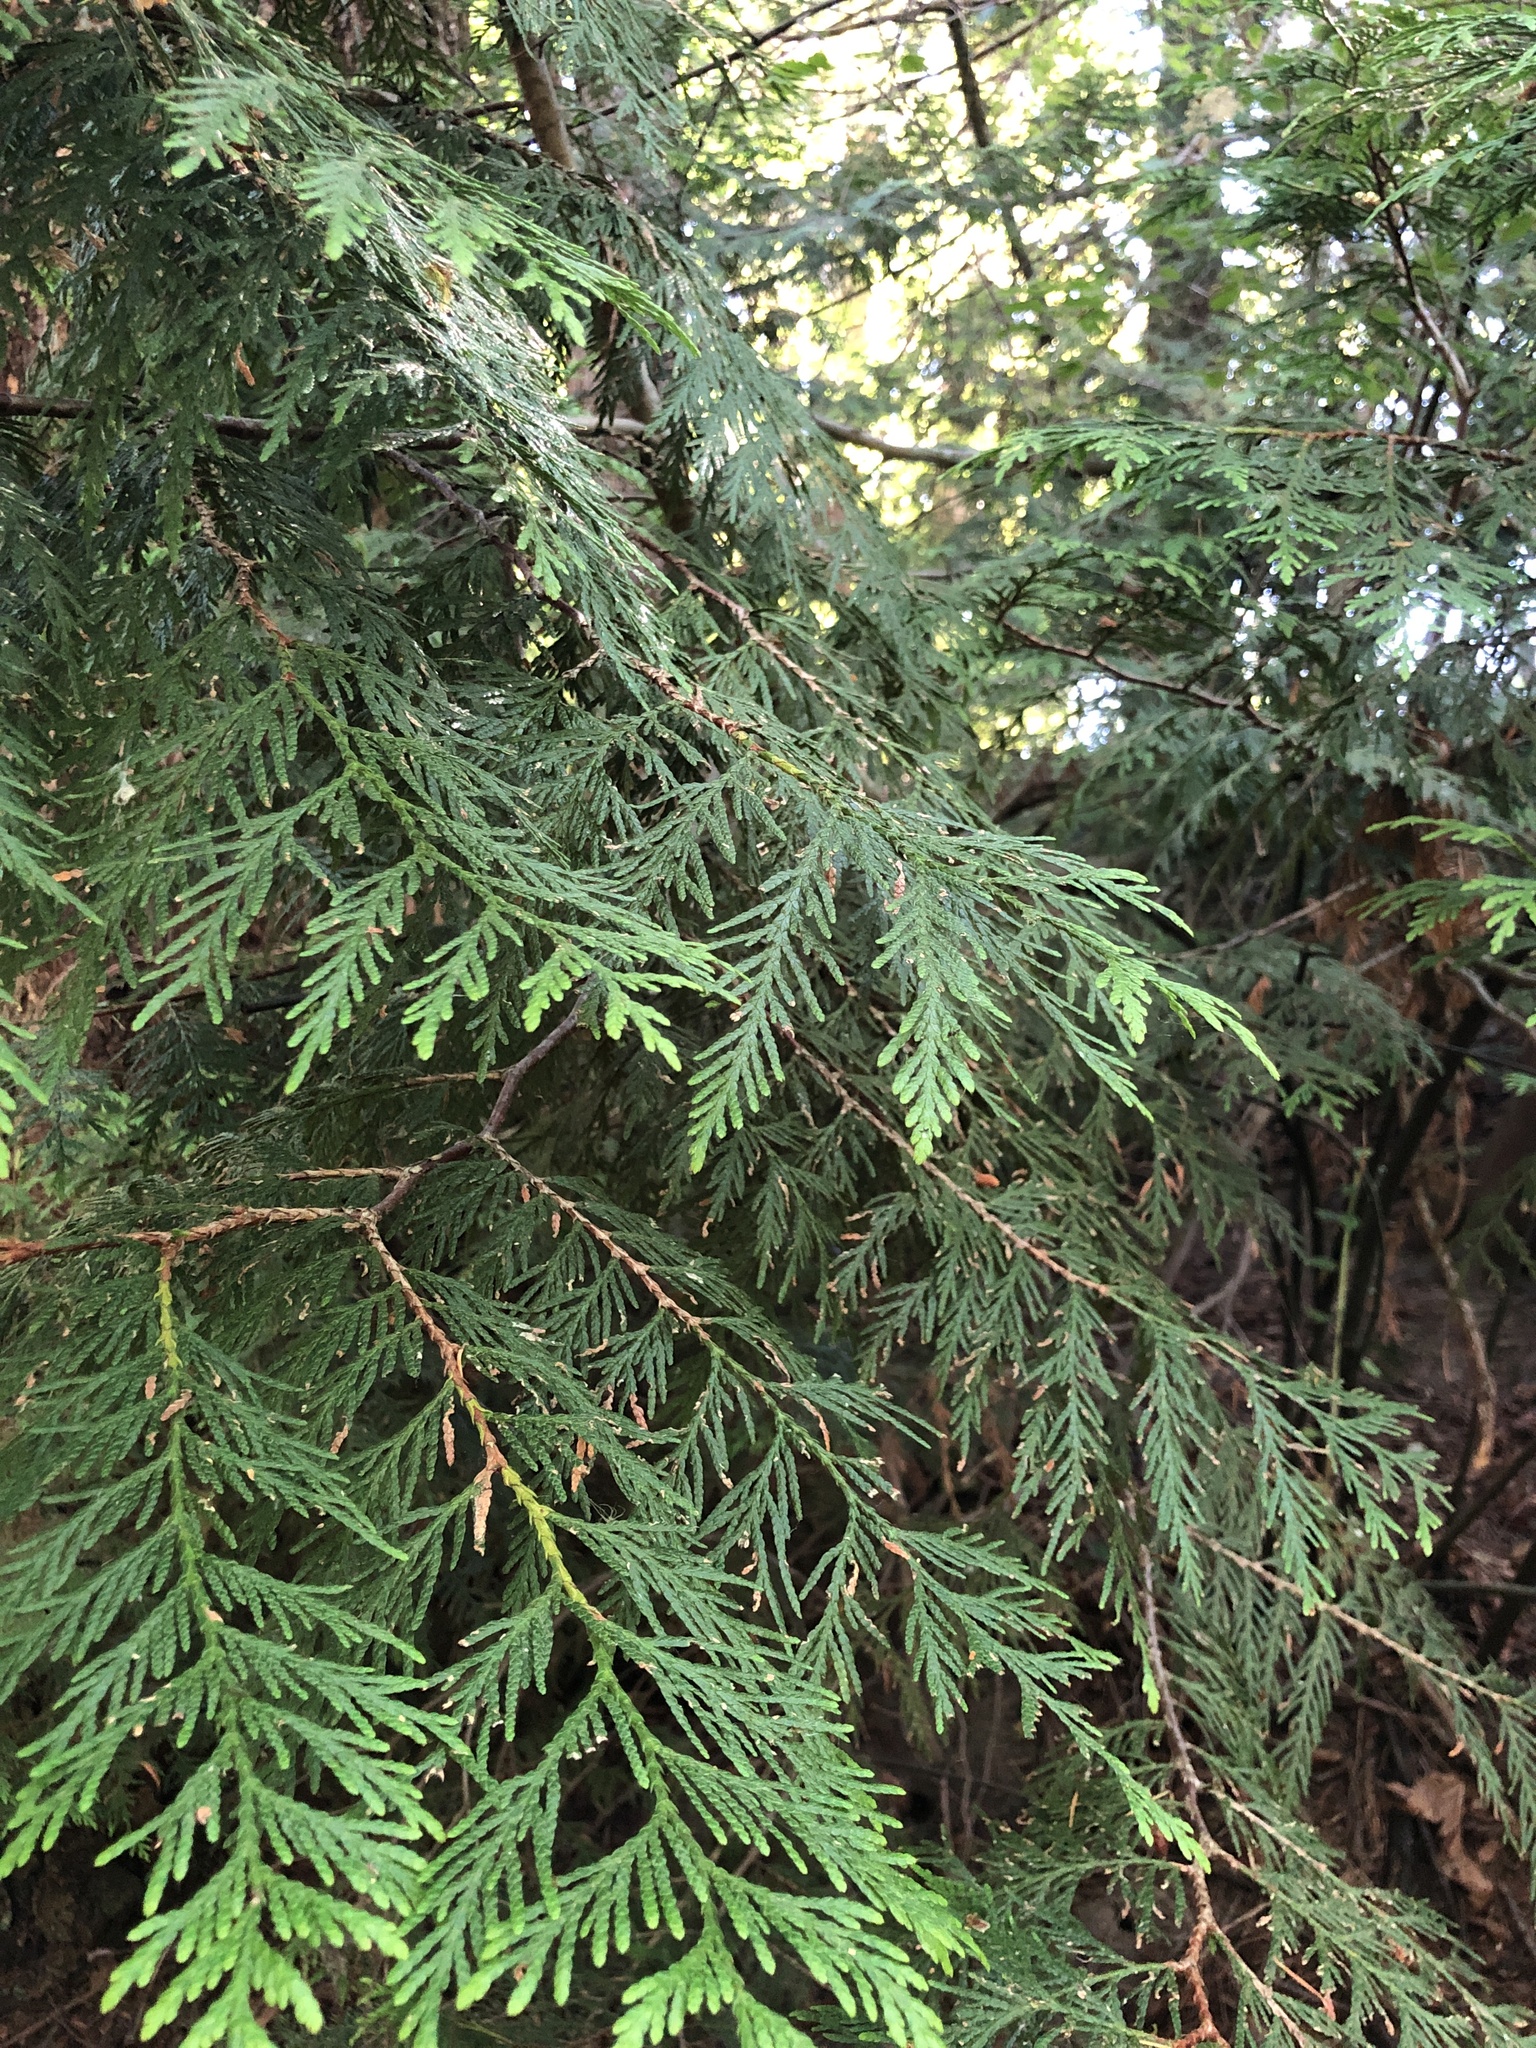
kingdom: Plantae
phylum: Tracheophyta
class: Pinopsida
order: Pinales
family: Cupressaceae
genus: Thuja
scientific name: Thuja plicata
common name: Western red-cedar
